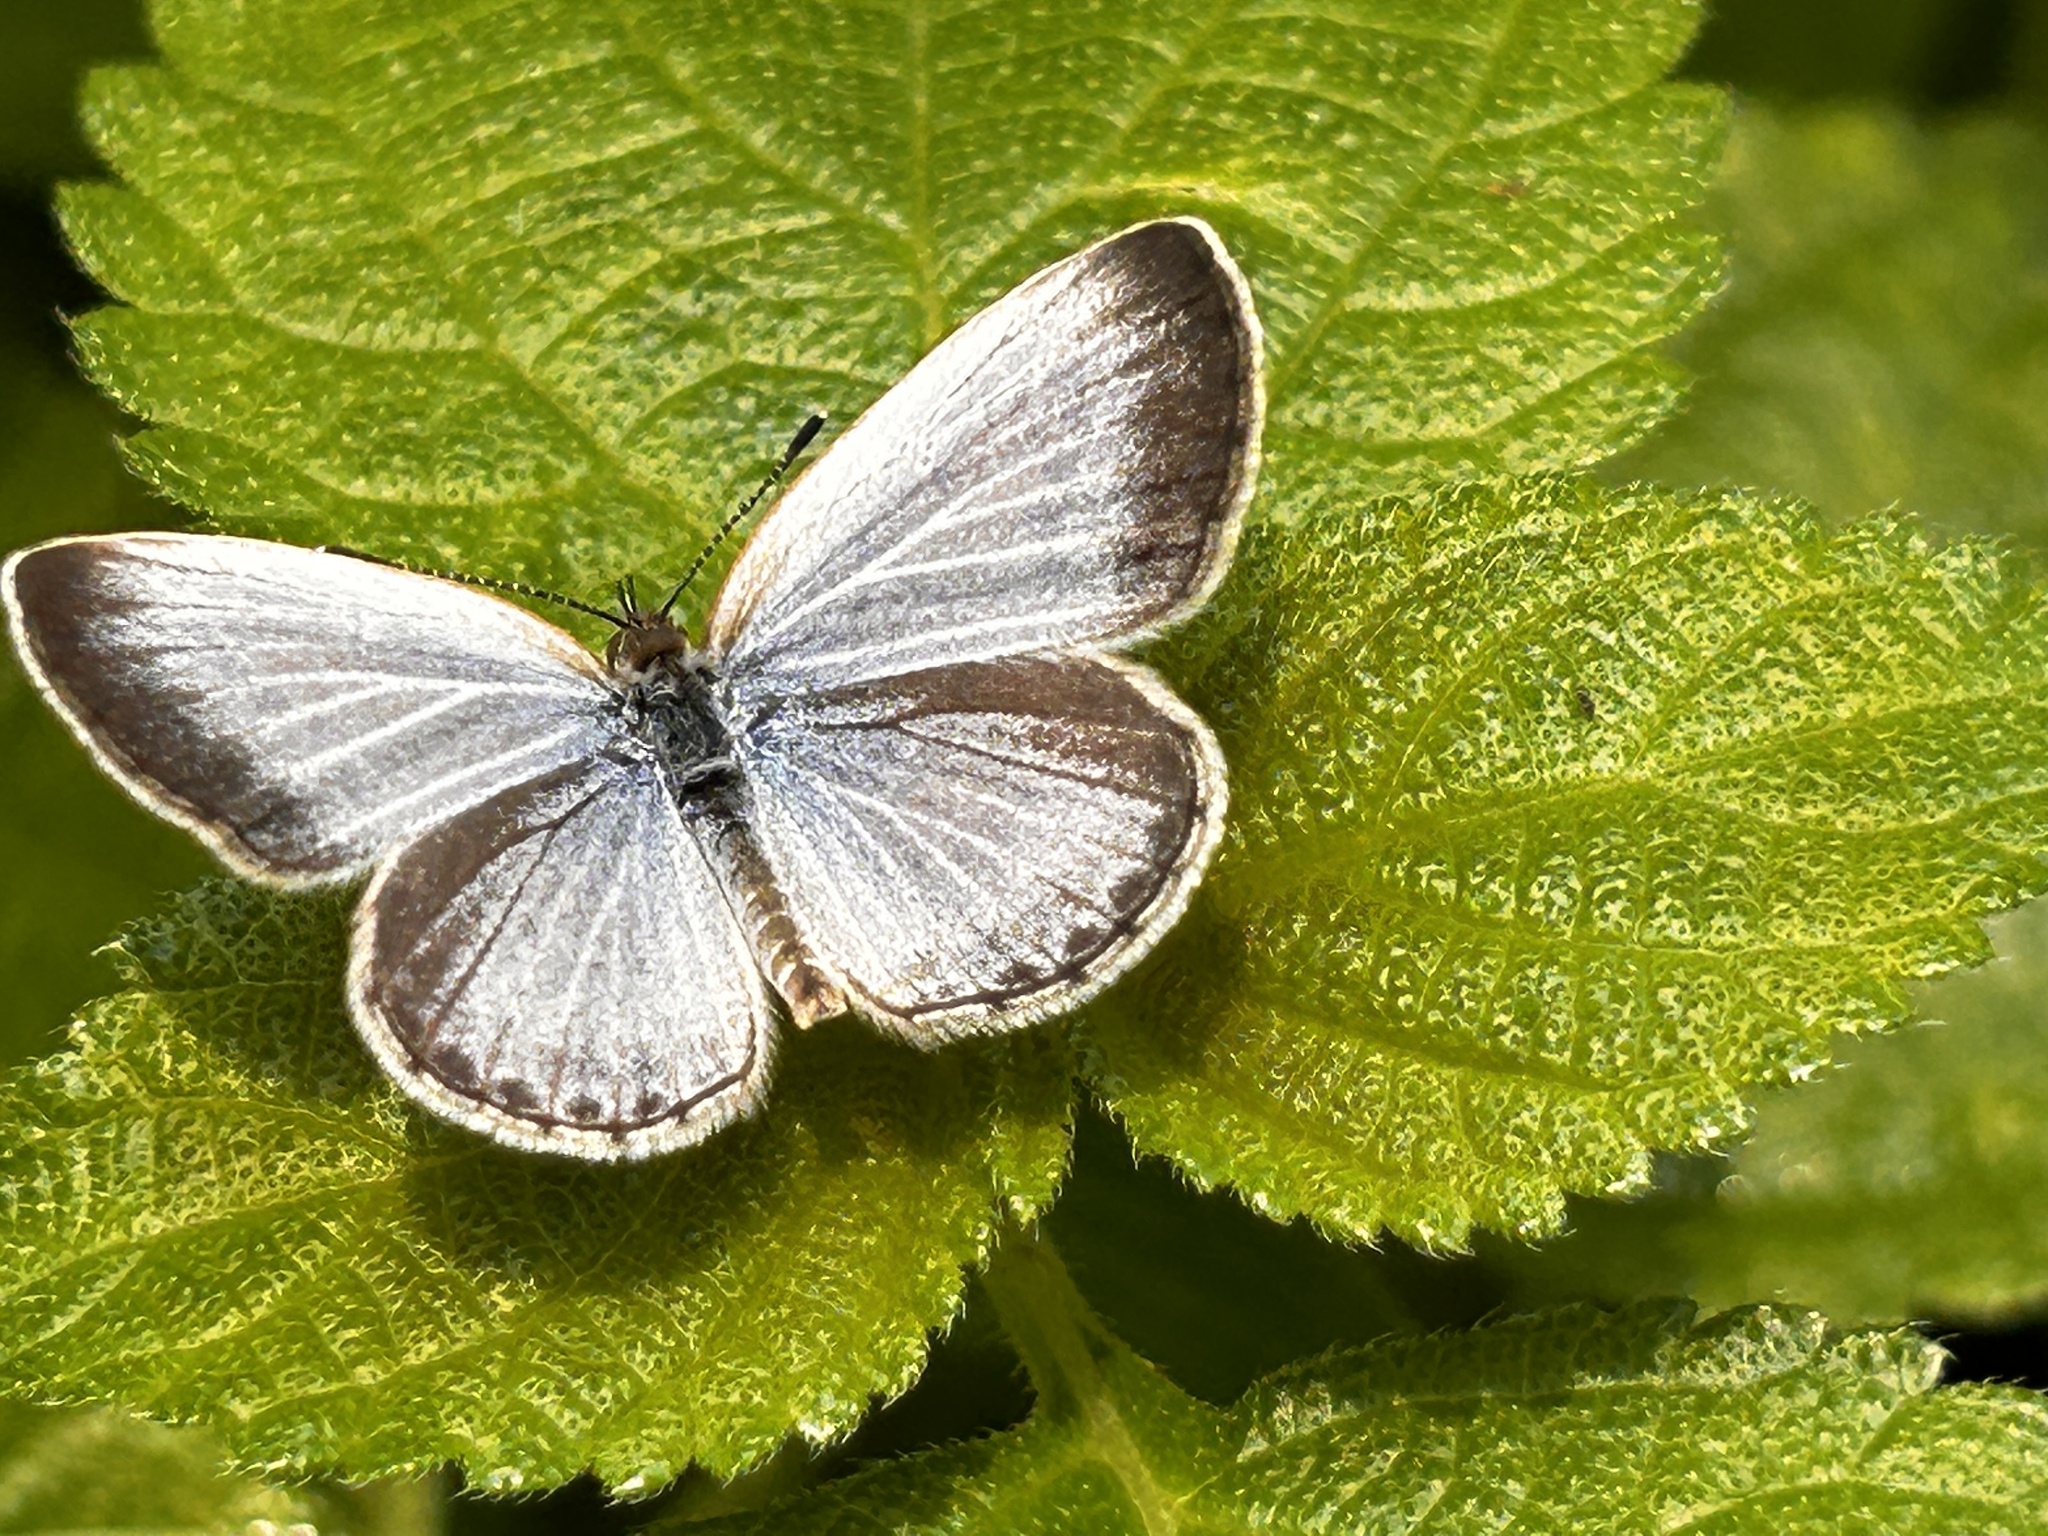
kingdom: Animalia
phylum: Arthropoda
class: Insecta
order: Lepidoptera
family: Lycaenidae
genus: Pseudozizeeria
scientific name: Pseudozizeeria maha
